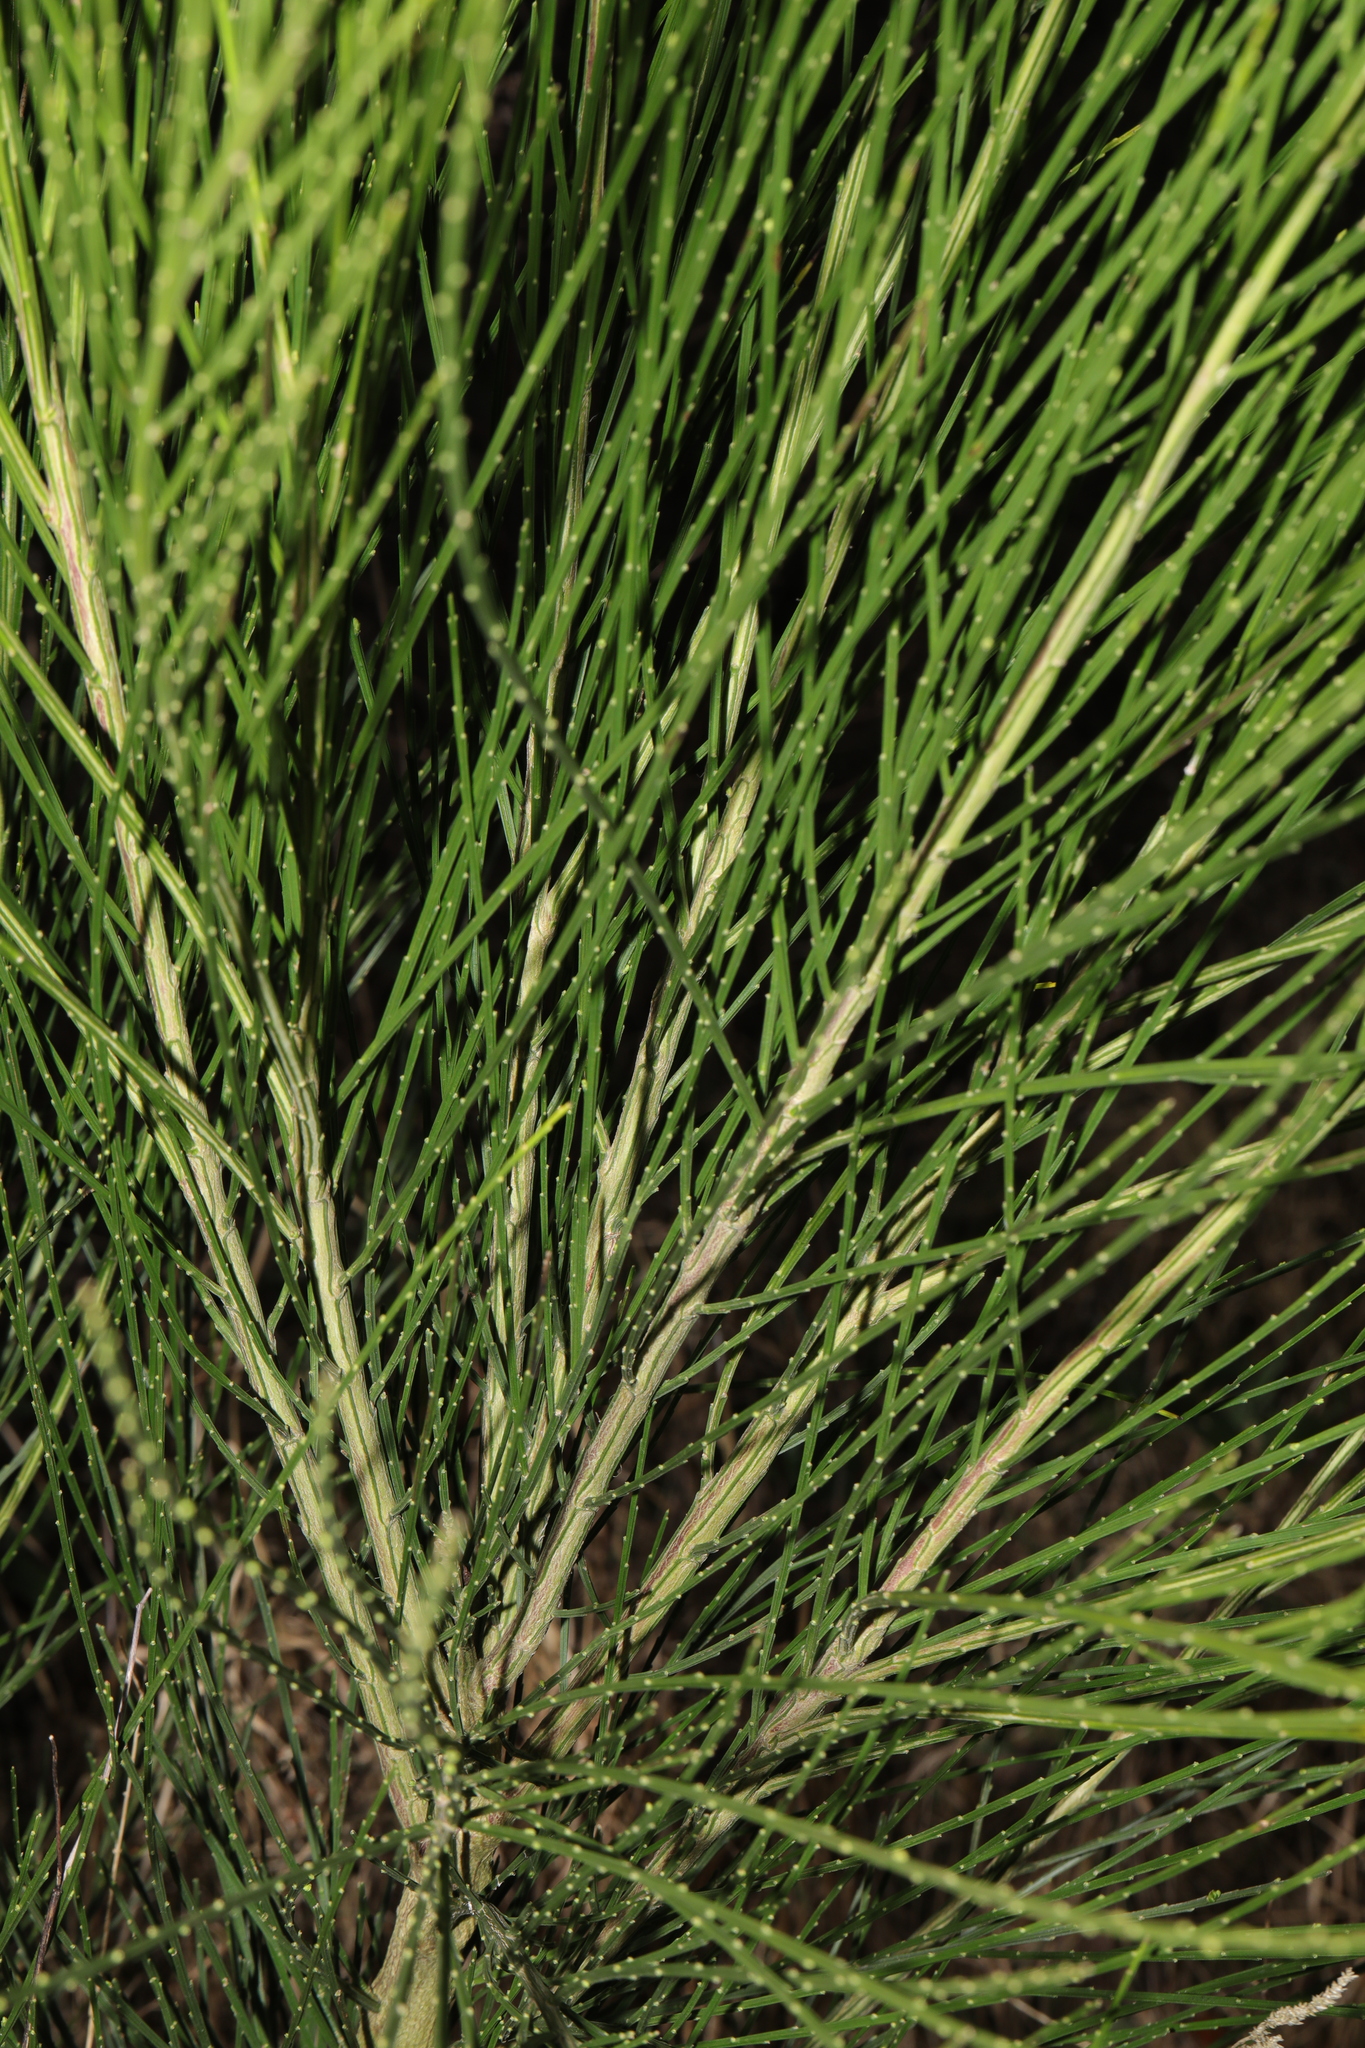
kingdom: Plantae
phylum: Tracheophyta
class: Magnoliopsida
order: Fabales
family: Fabaceae
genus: Cytisus
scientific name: Cytisus scoparius
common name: Scotch broom
